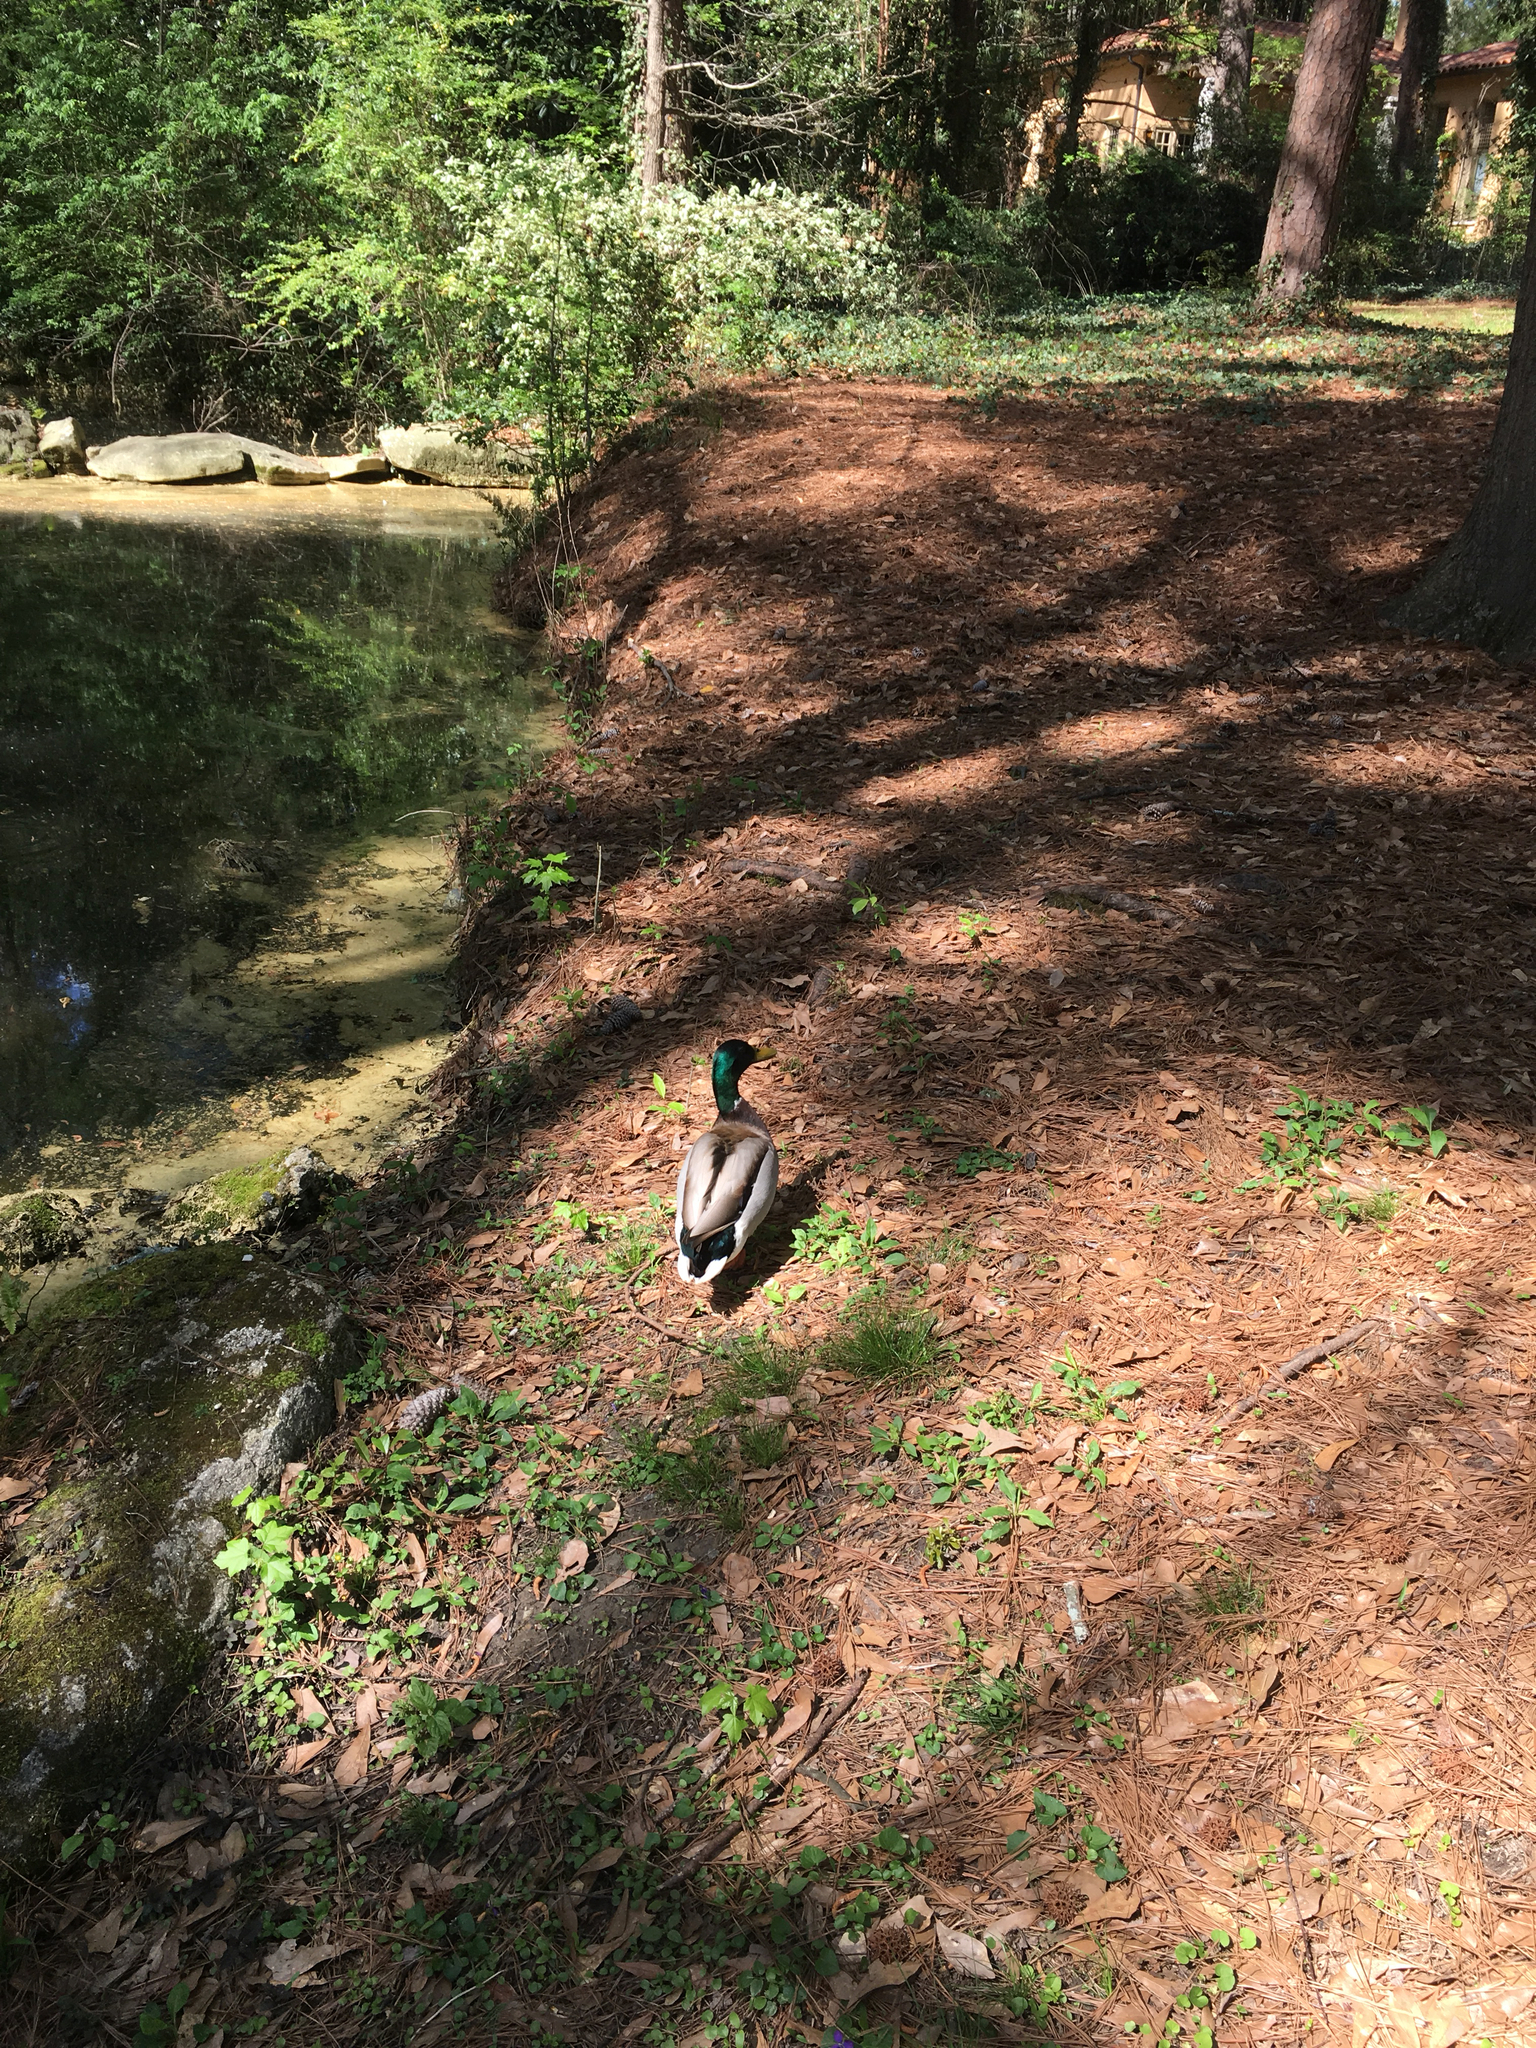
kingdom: Animalia
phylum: Chordata
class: Aves
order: Anseriformes
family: Anatidae
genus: Anas
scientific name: Anas platyrhynchos
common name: Mallard
